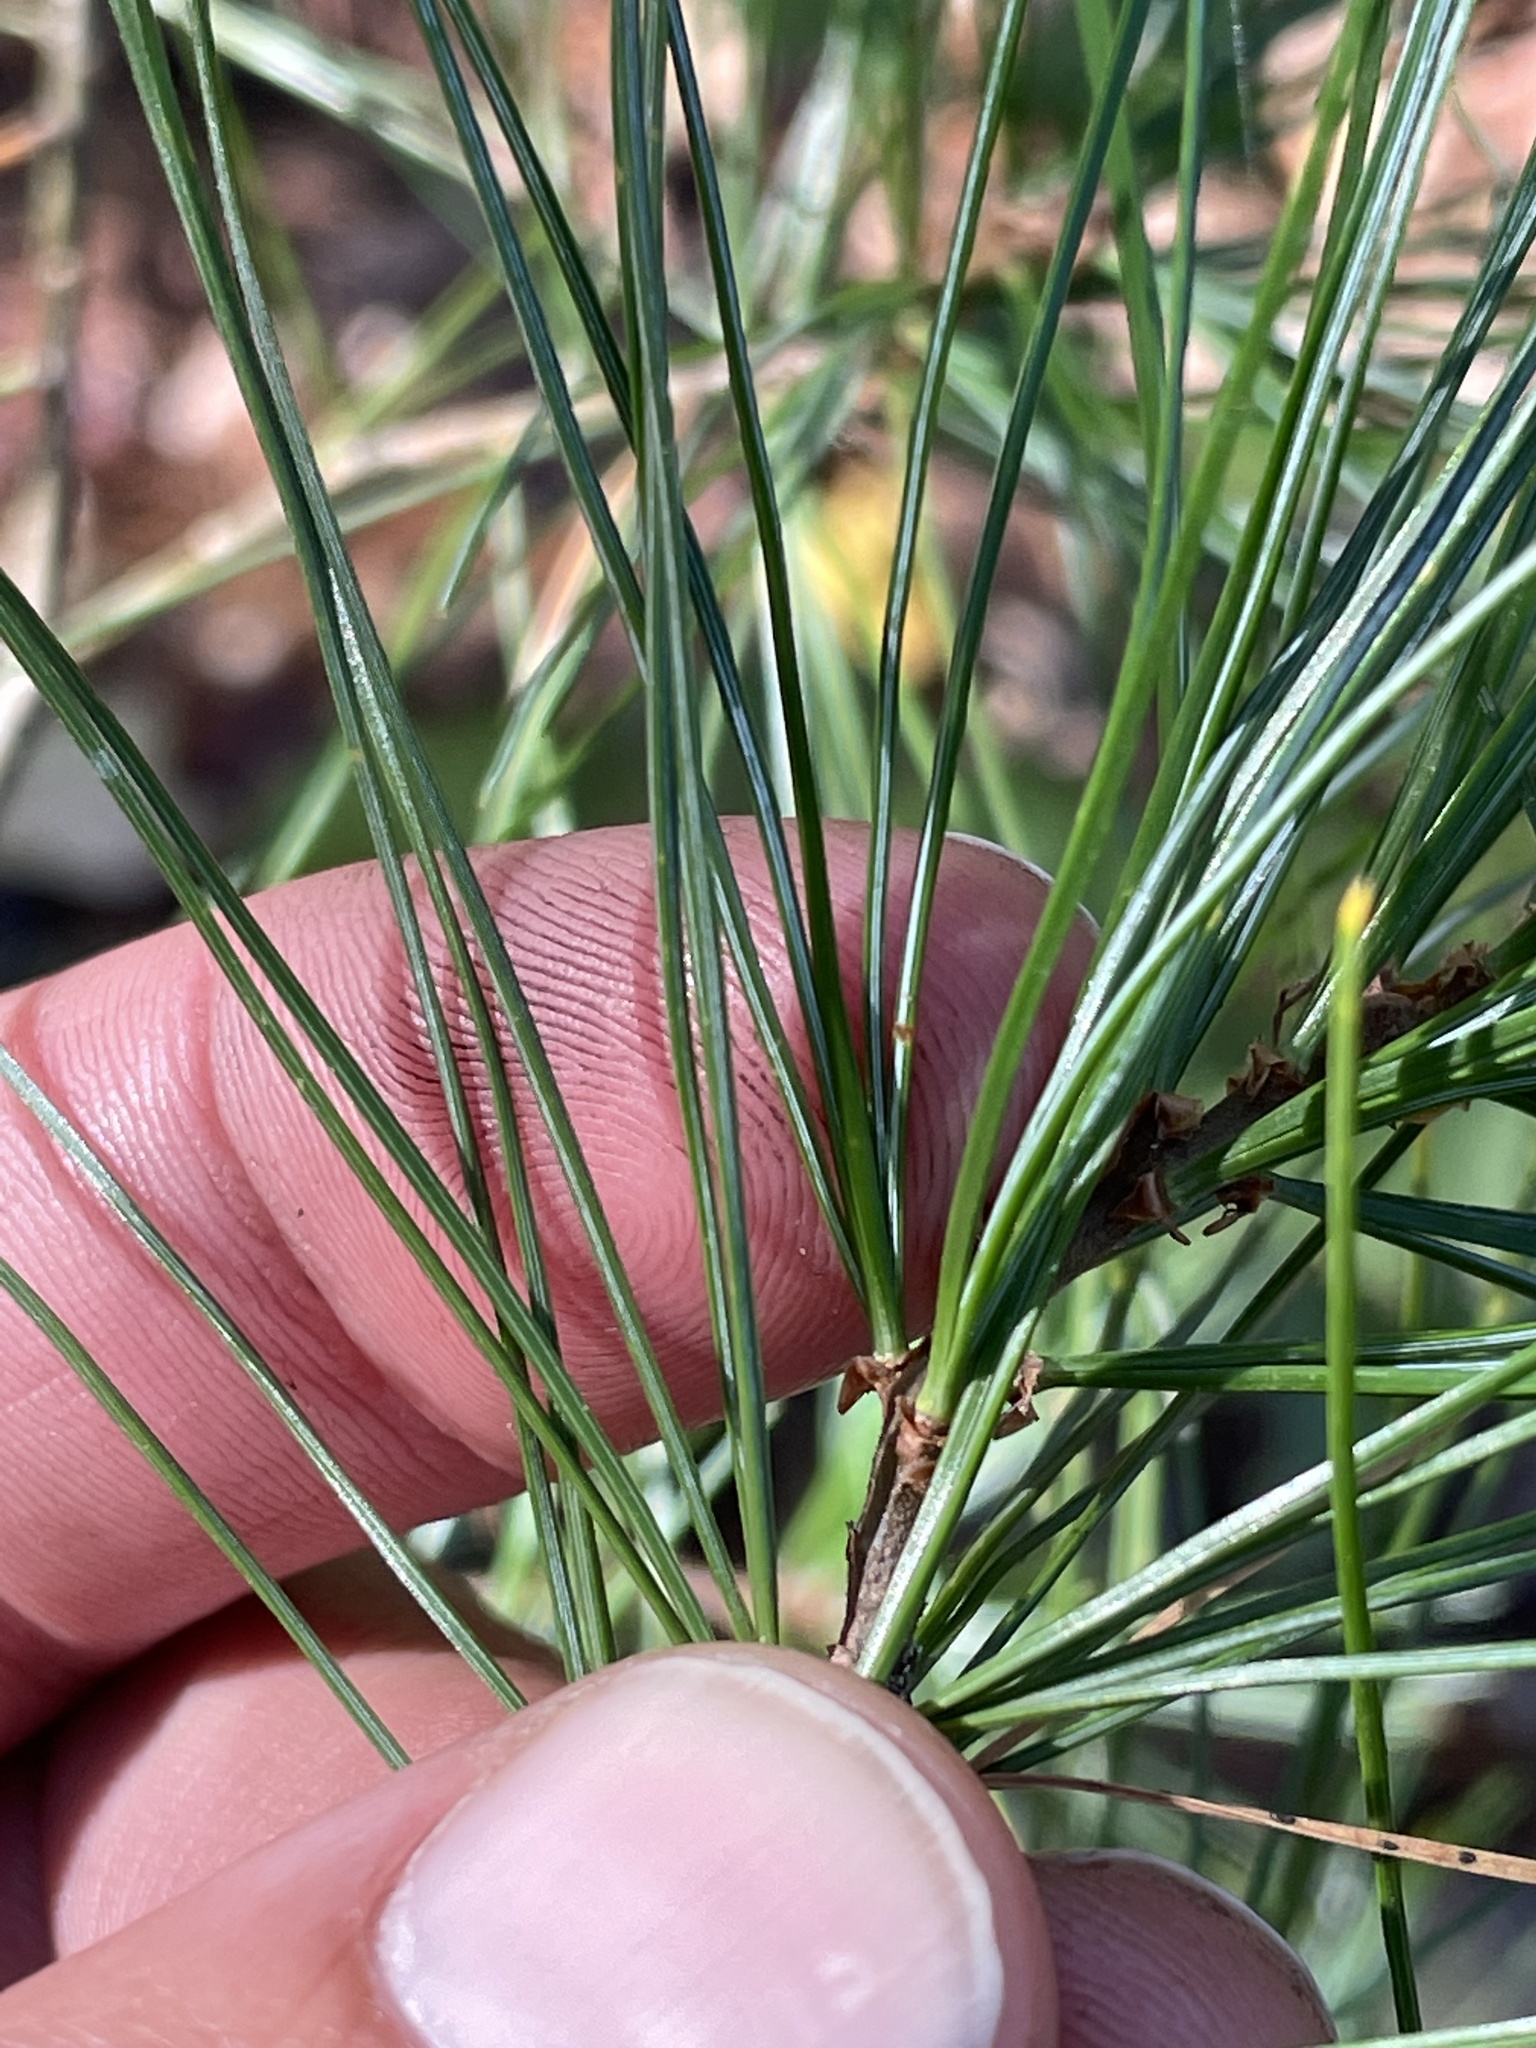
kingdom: Plantae
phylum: Tracheophyta
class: Pinopsida
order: Pinales
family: Pinaceae
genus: Pinus
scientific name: Pinus strobus
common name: Weymouth pine
